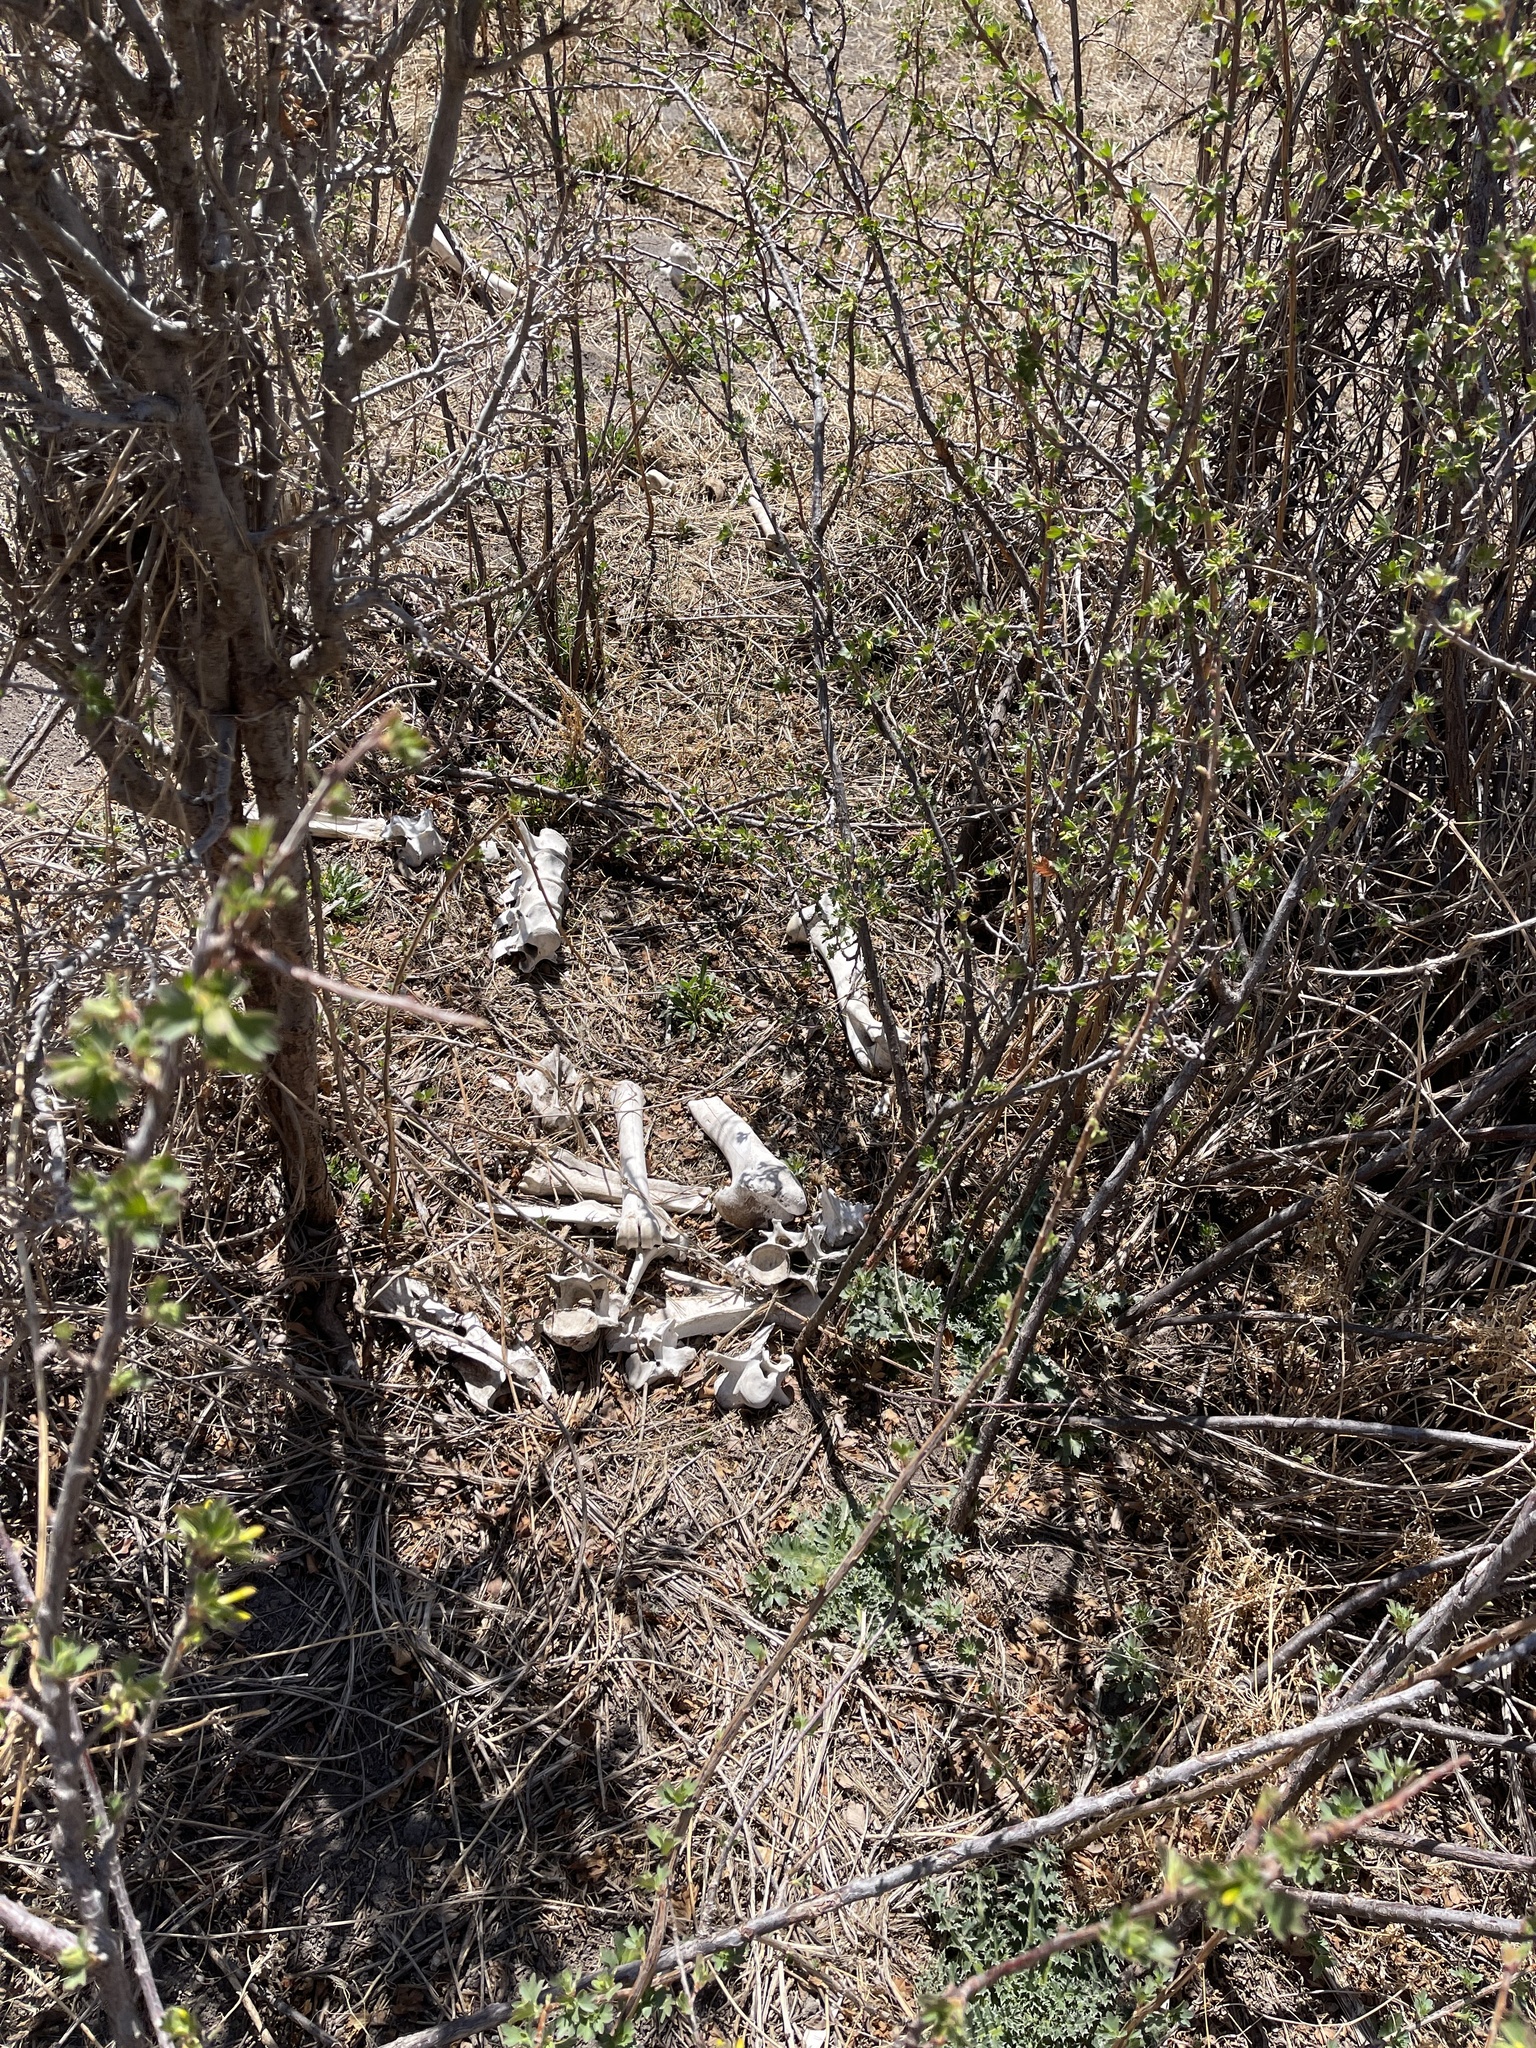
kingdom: Animalia
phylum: Chordata
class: Mammalia
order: Artiodactyla
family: Cervidae
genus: Cervus
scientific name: Cervus elaphus
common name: Red deer
